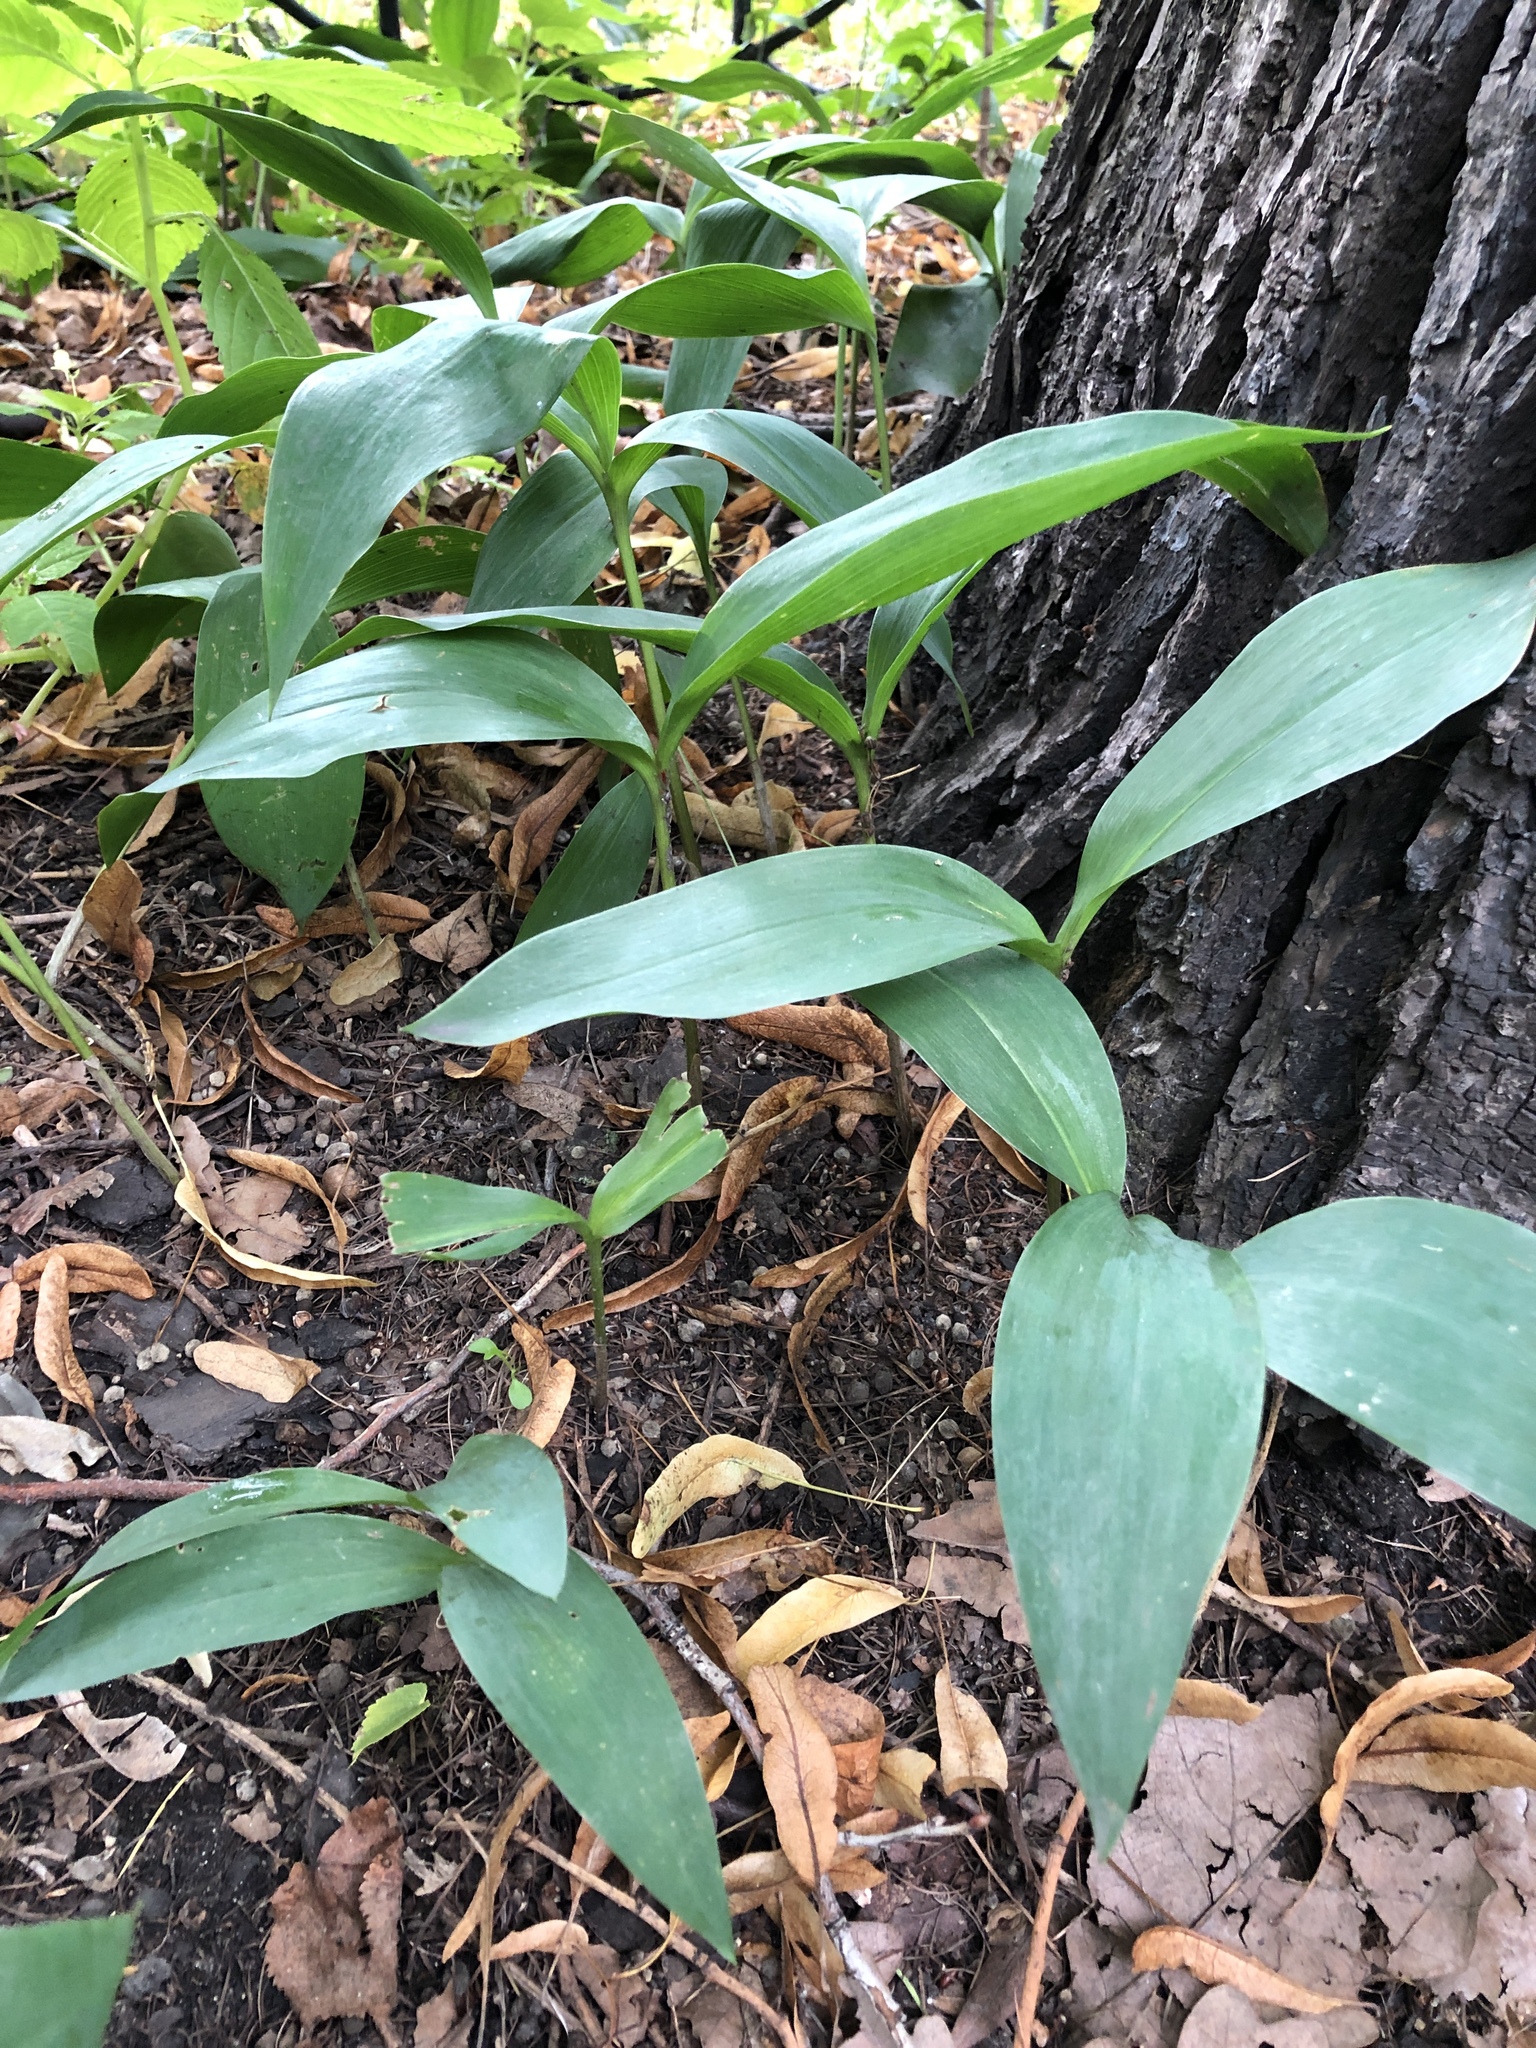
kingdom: Plantae
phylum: Tracheophyta
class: Liliopsida
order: Asparagales
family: Asparagaceae
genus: Convallaria
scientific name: Convallaria majalis
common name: Lily-of-the-valley
